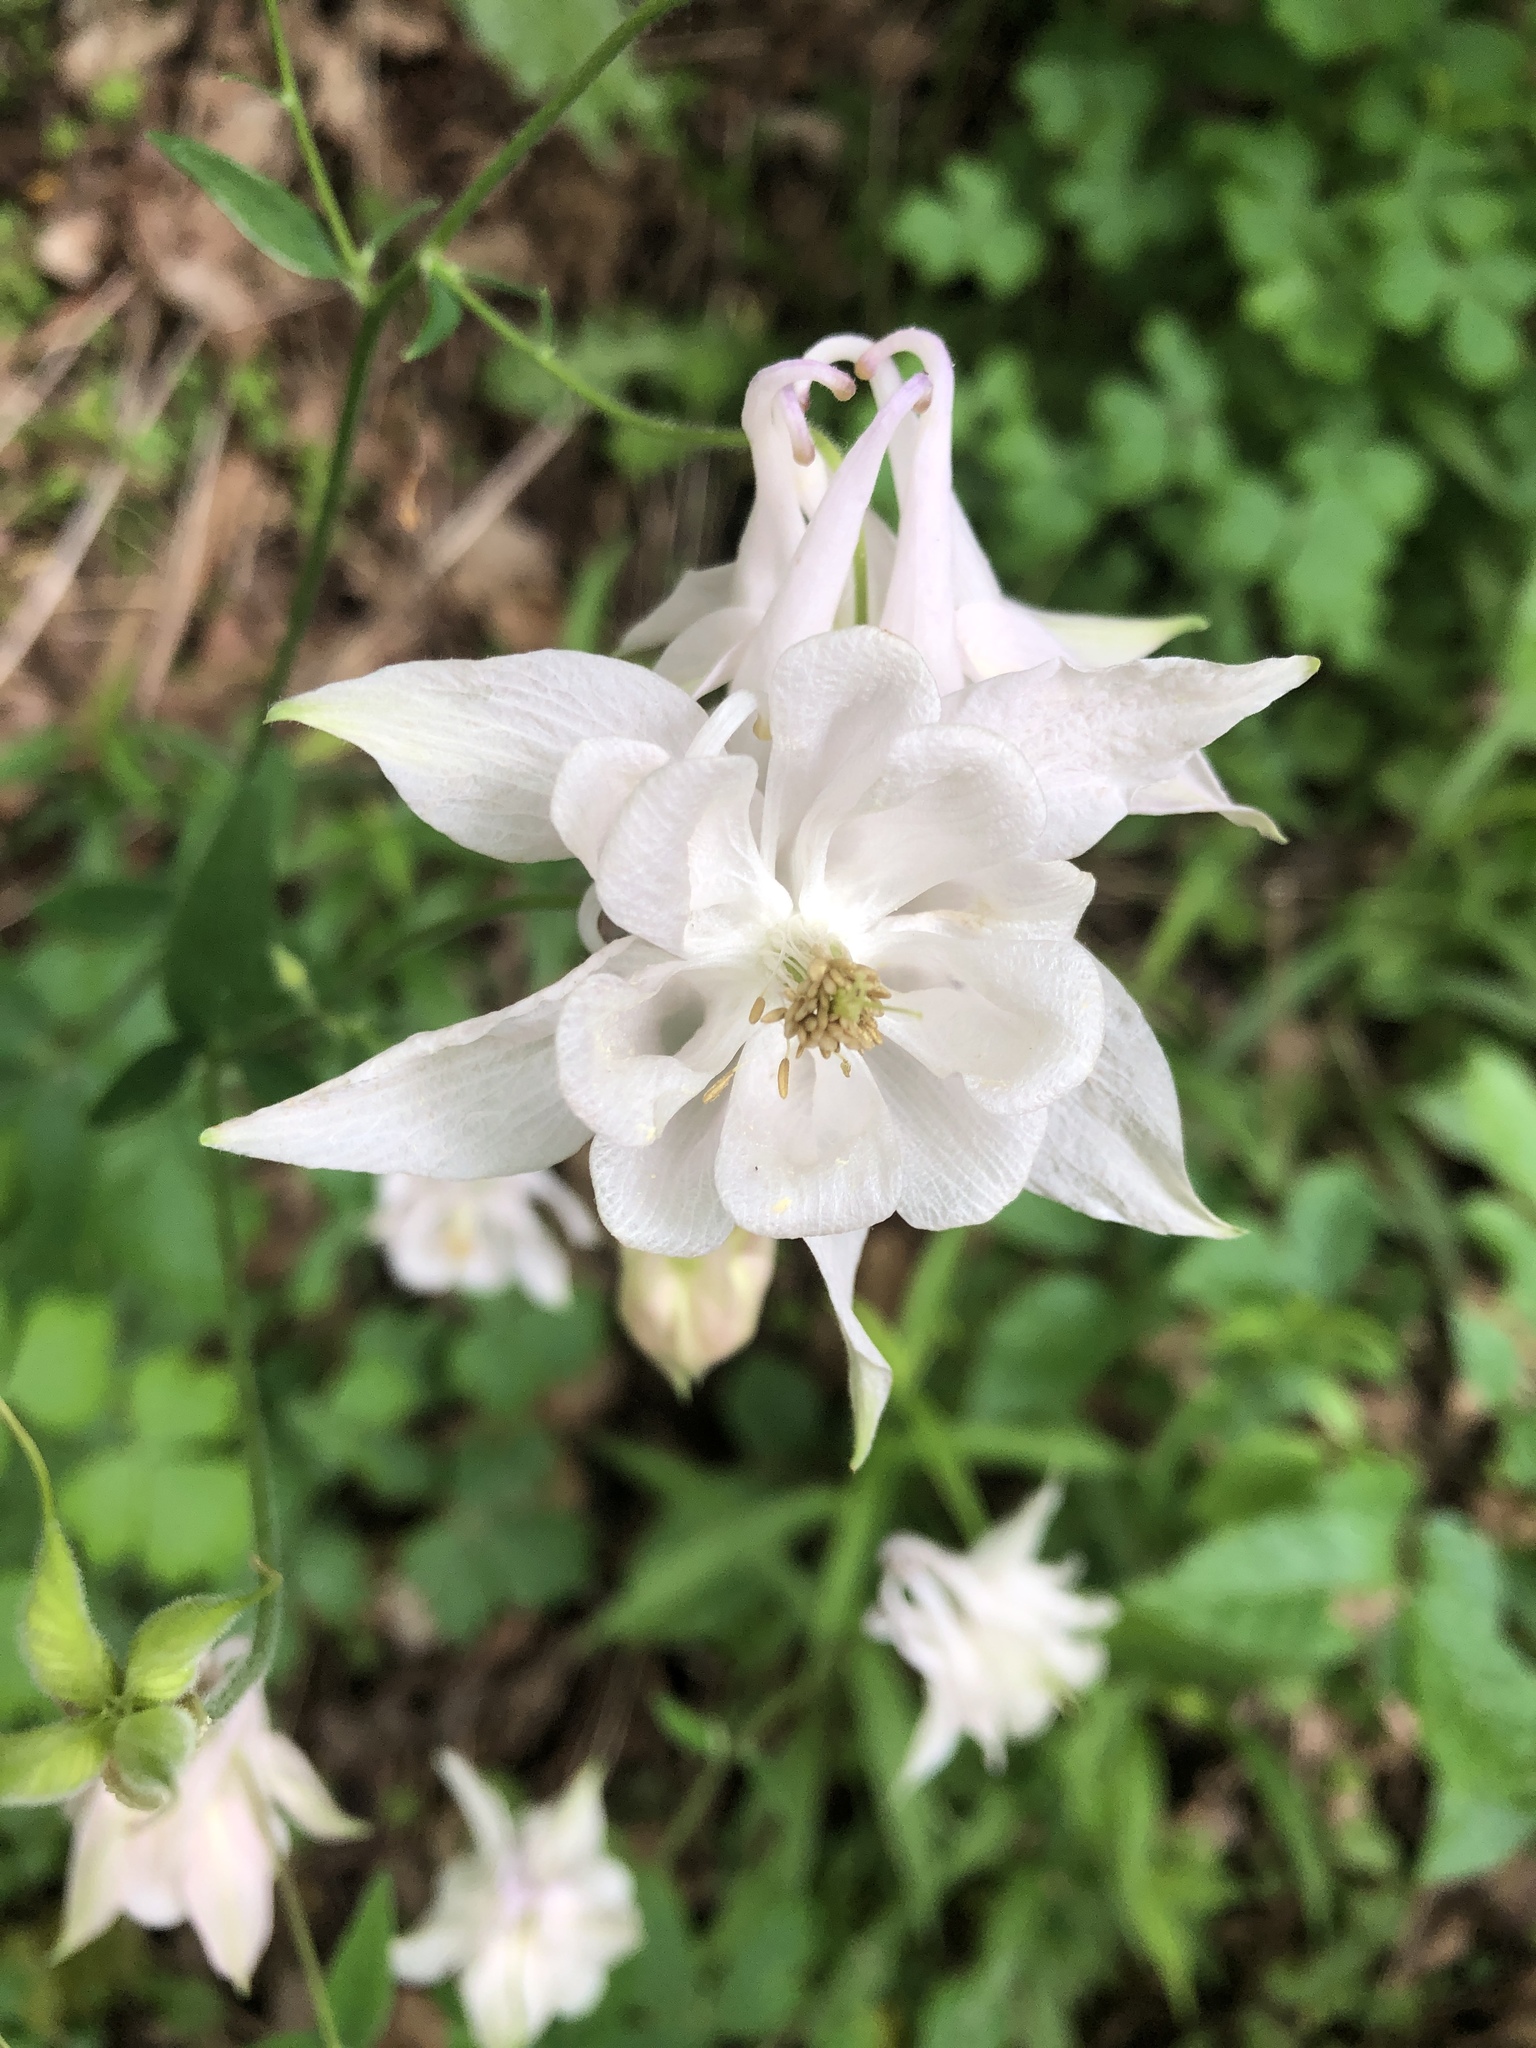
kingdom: Plantae
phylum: Tracheophyta
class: Magnoliopsida
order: Ranunculales
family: Ranunculaceae
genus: Aquilegia
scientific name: Aquilegia vulgaris
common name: Columbine
